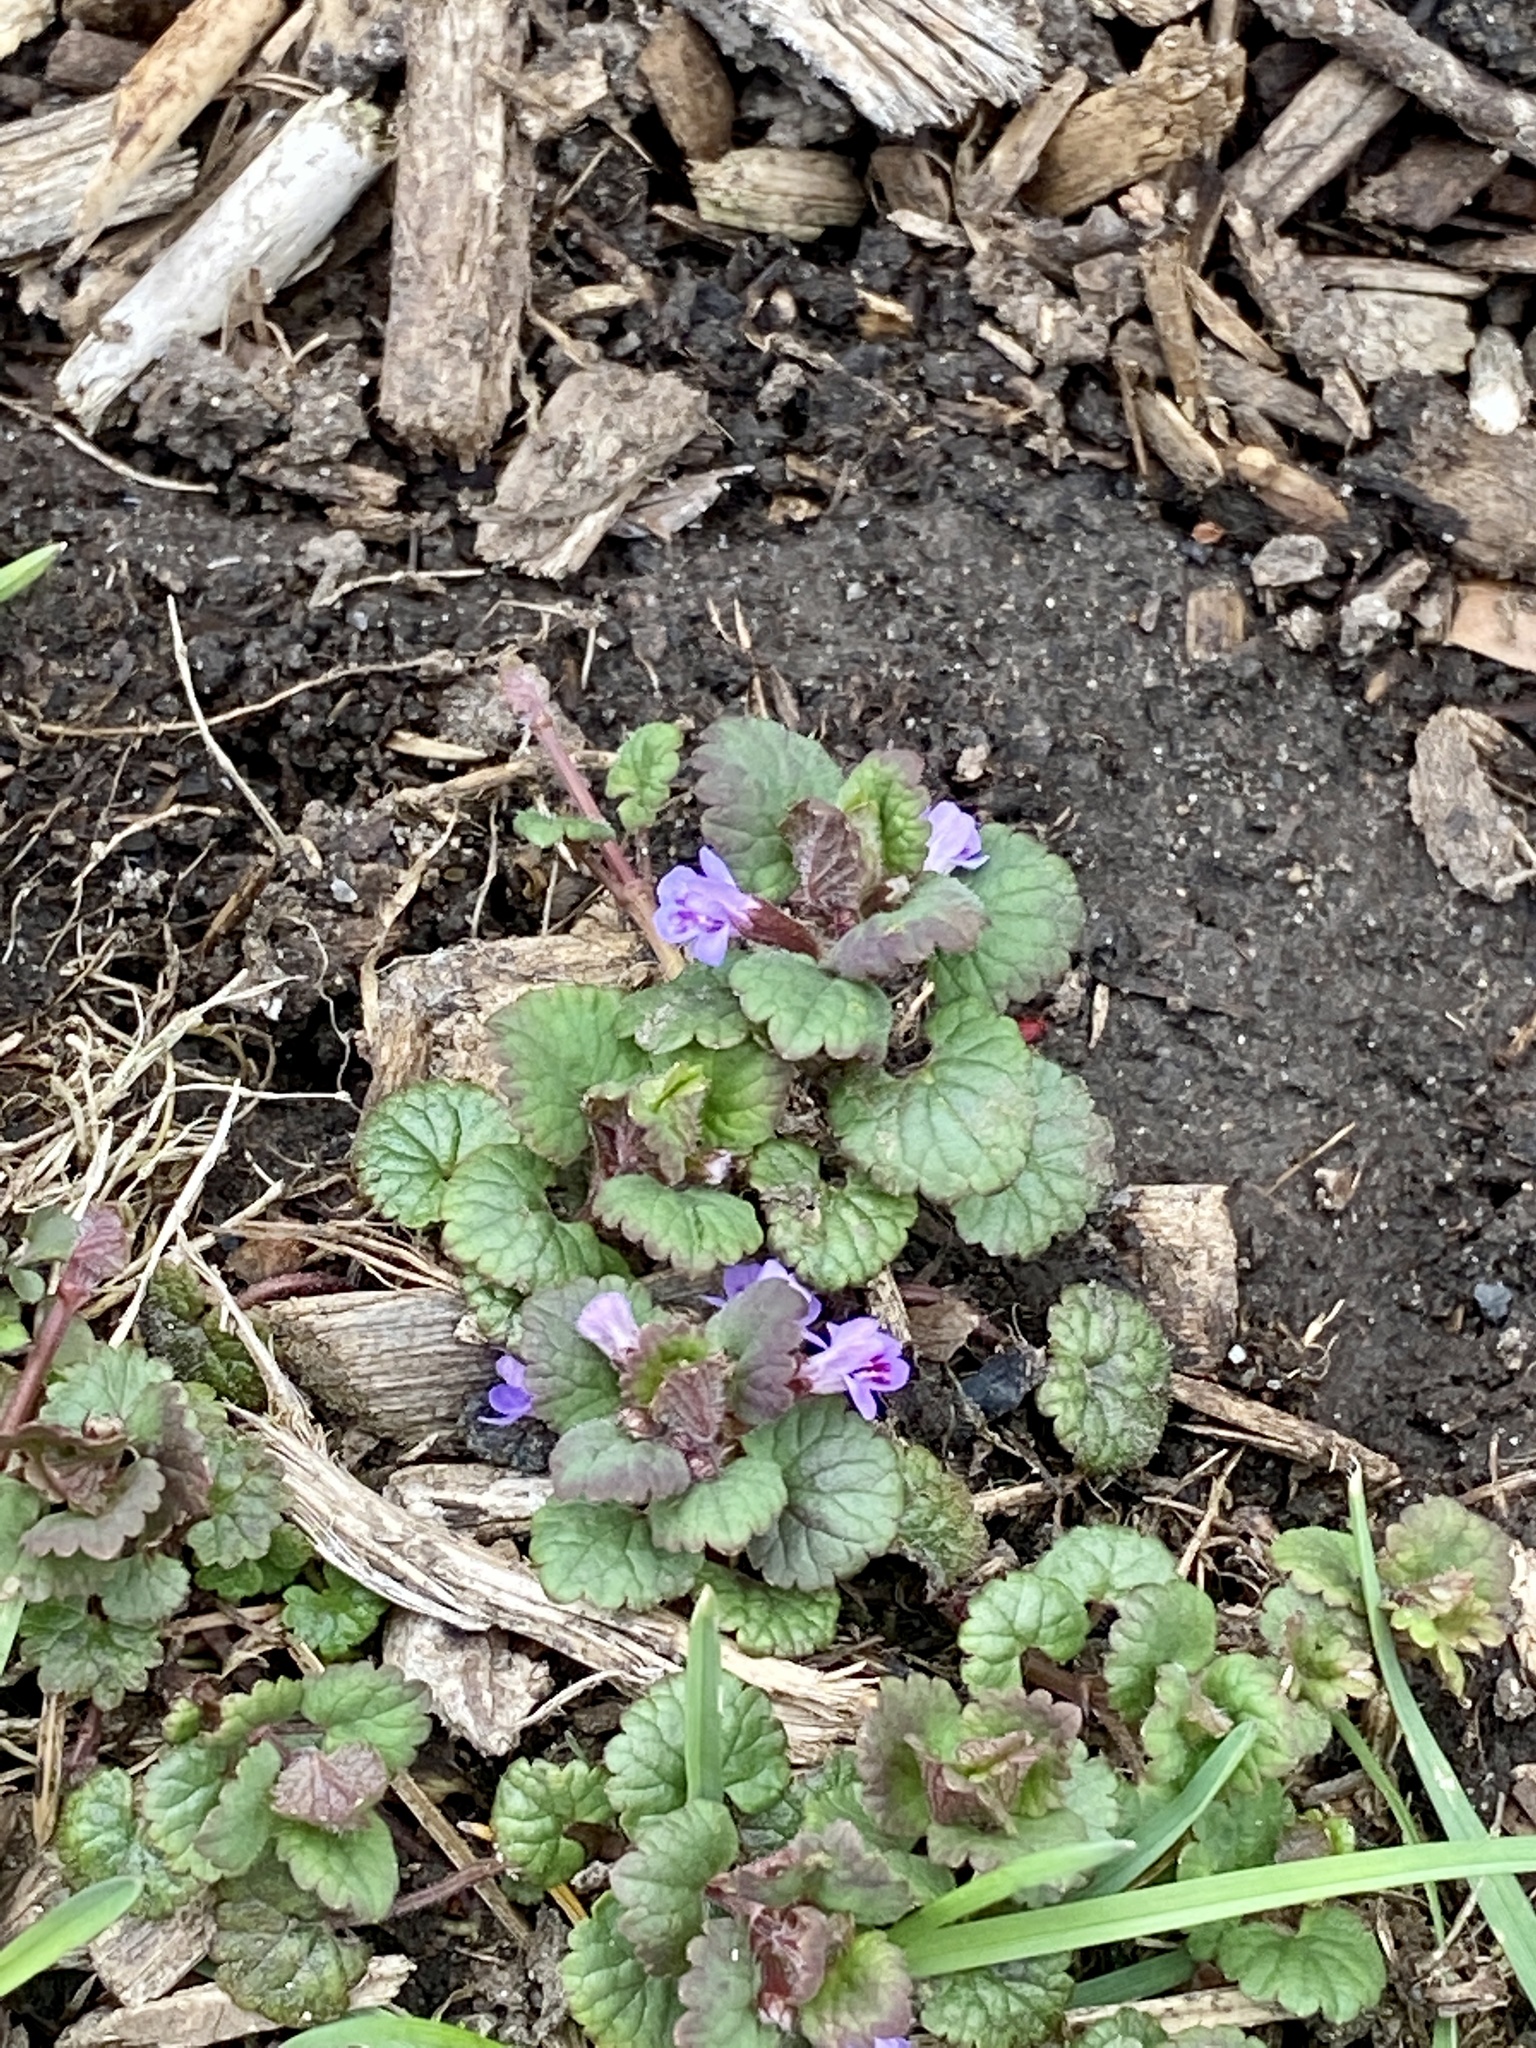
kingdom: Plantae
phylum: Tracheophyta
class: Magnoliopsida
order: Lamiales
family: Lamiaceae
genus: Glechoma
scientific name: Glechoma hederacea
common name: Ground ivy
